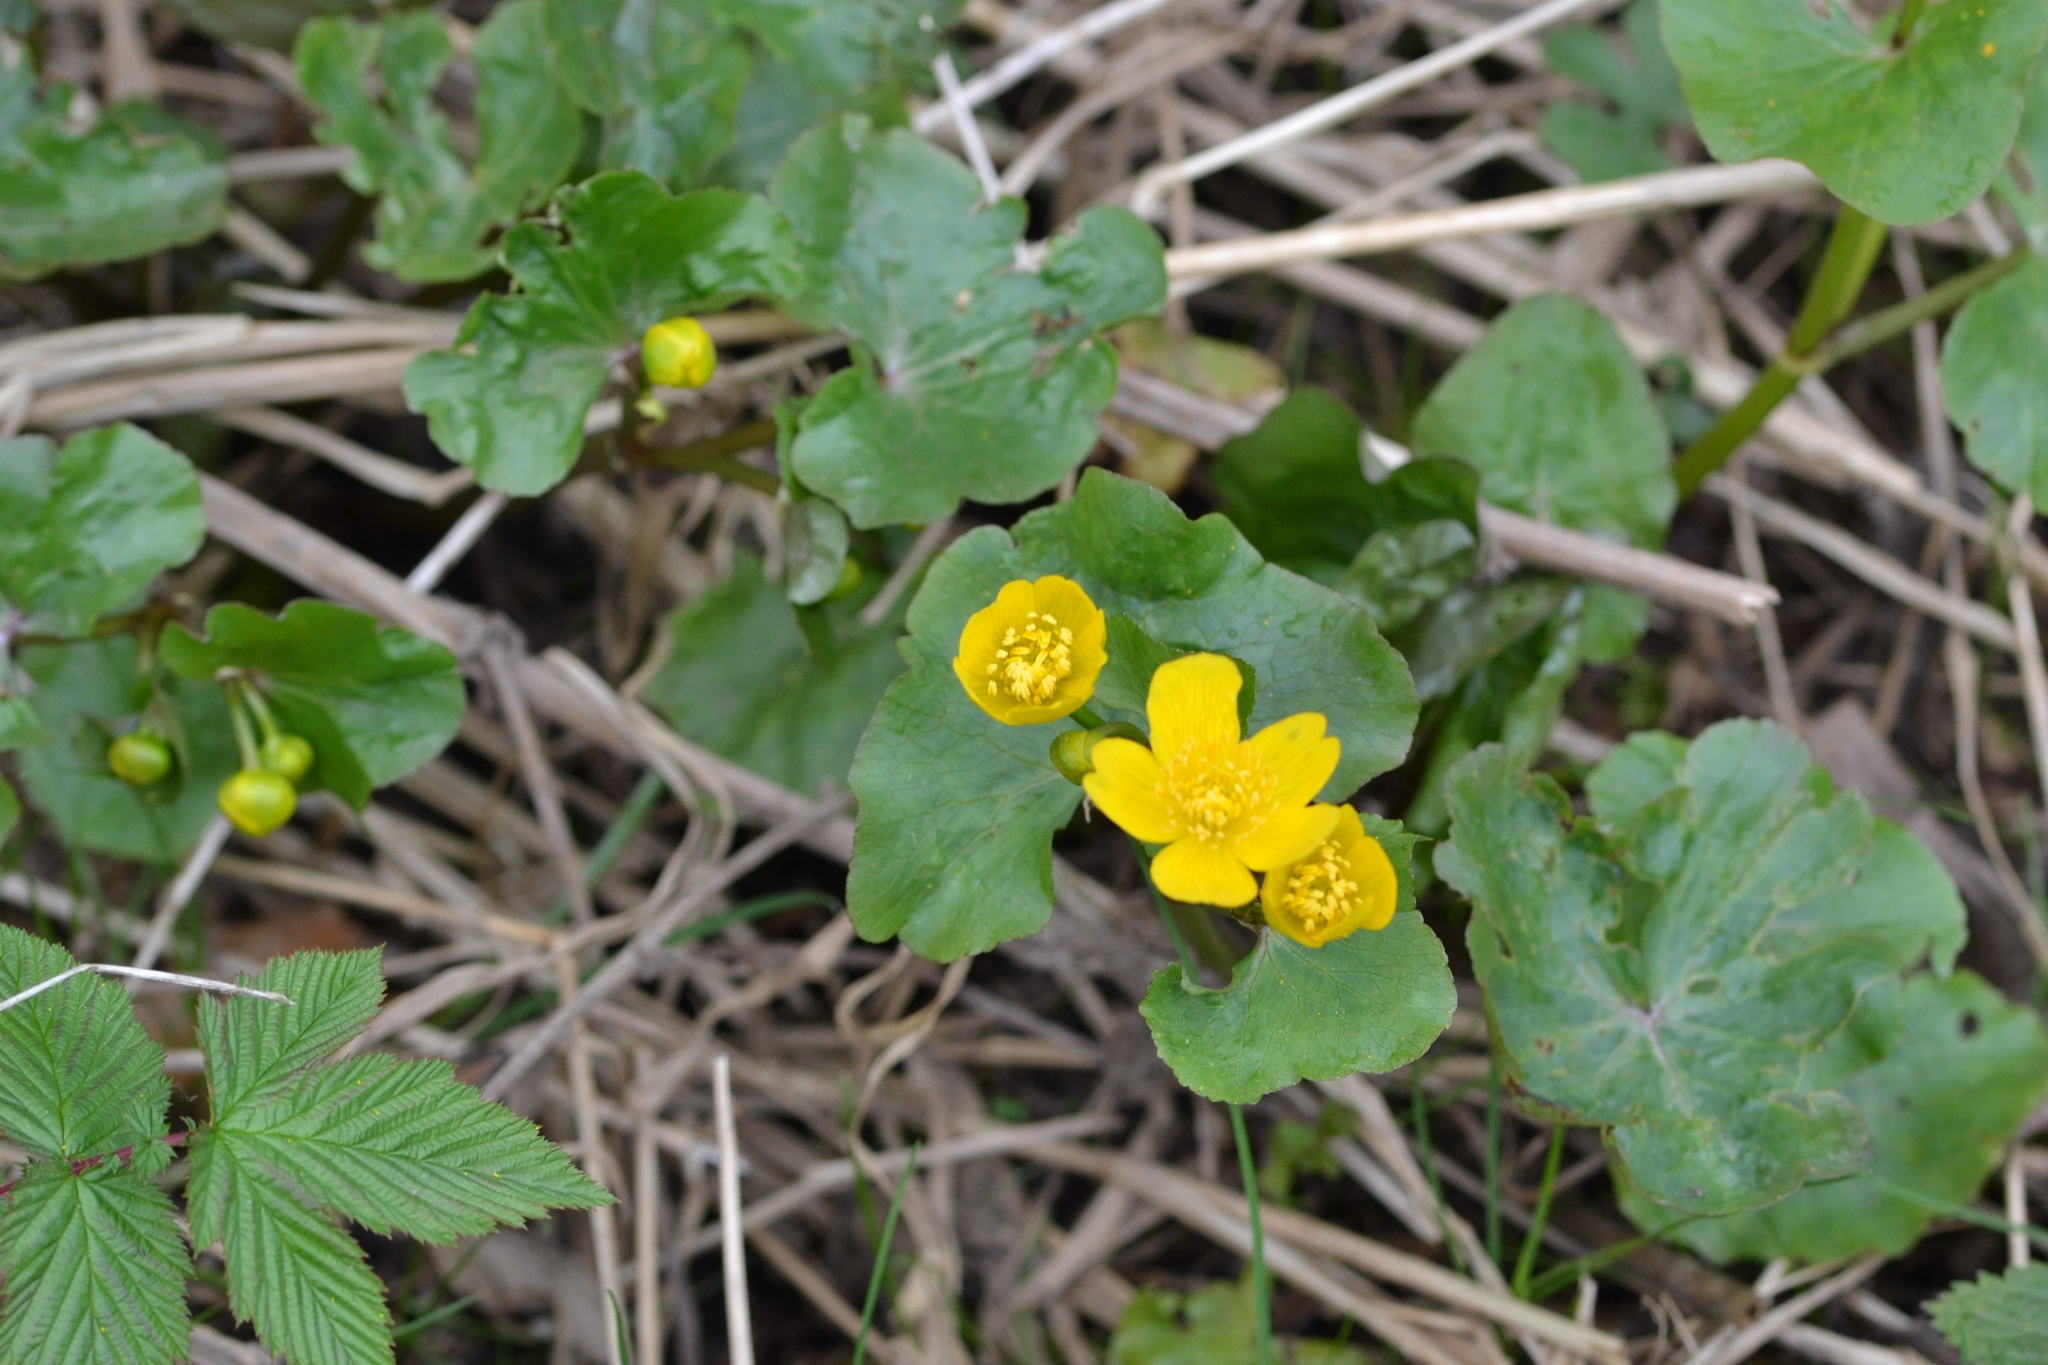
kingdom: Plantae
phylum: Tracheophyta
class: Magnoliopsida
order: Ranunculales
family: Ranunculaceae
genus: Caltha
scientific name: Caltha palustris
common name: Marsh marigold
